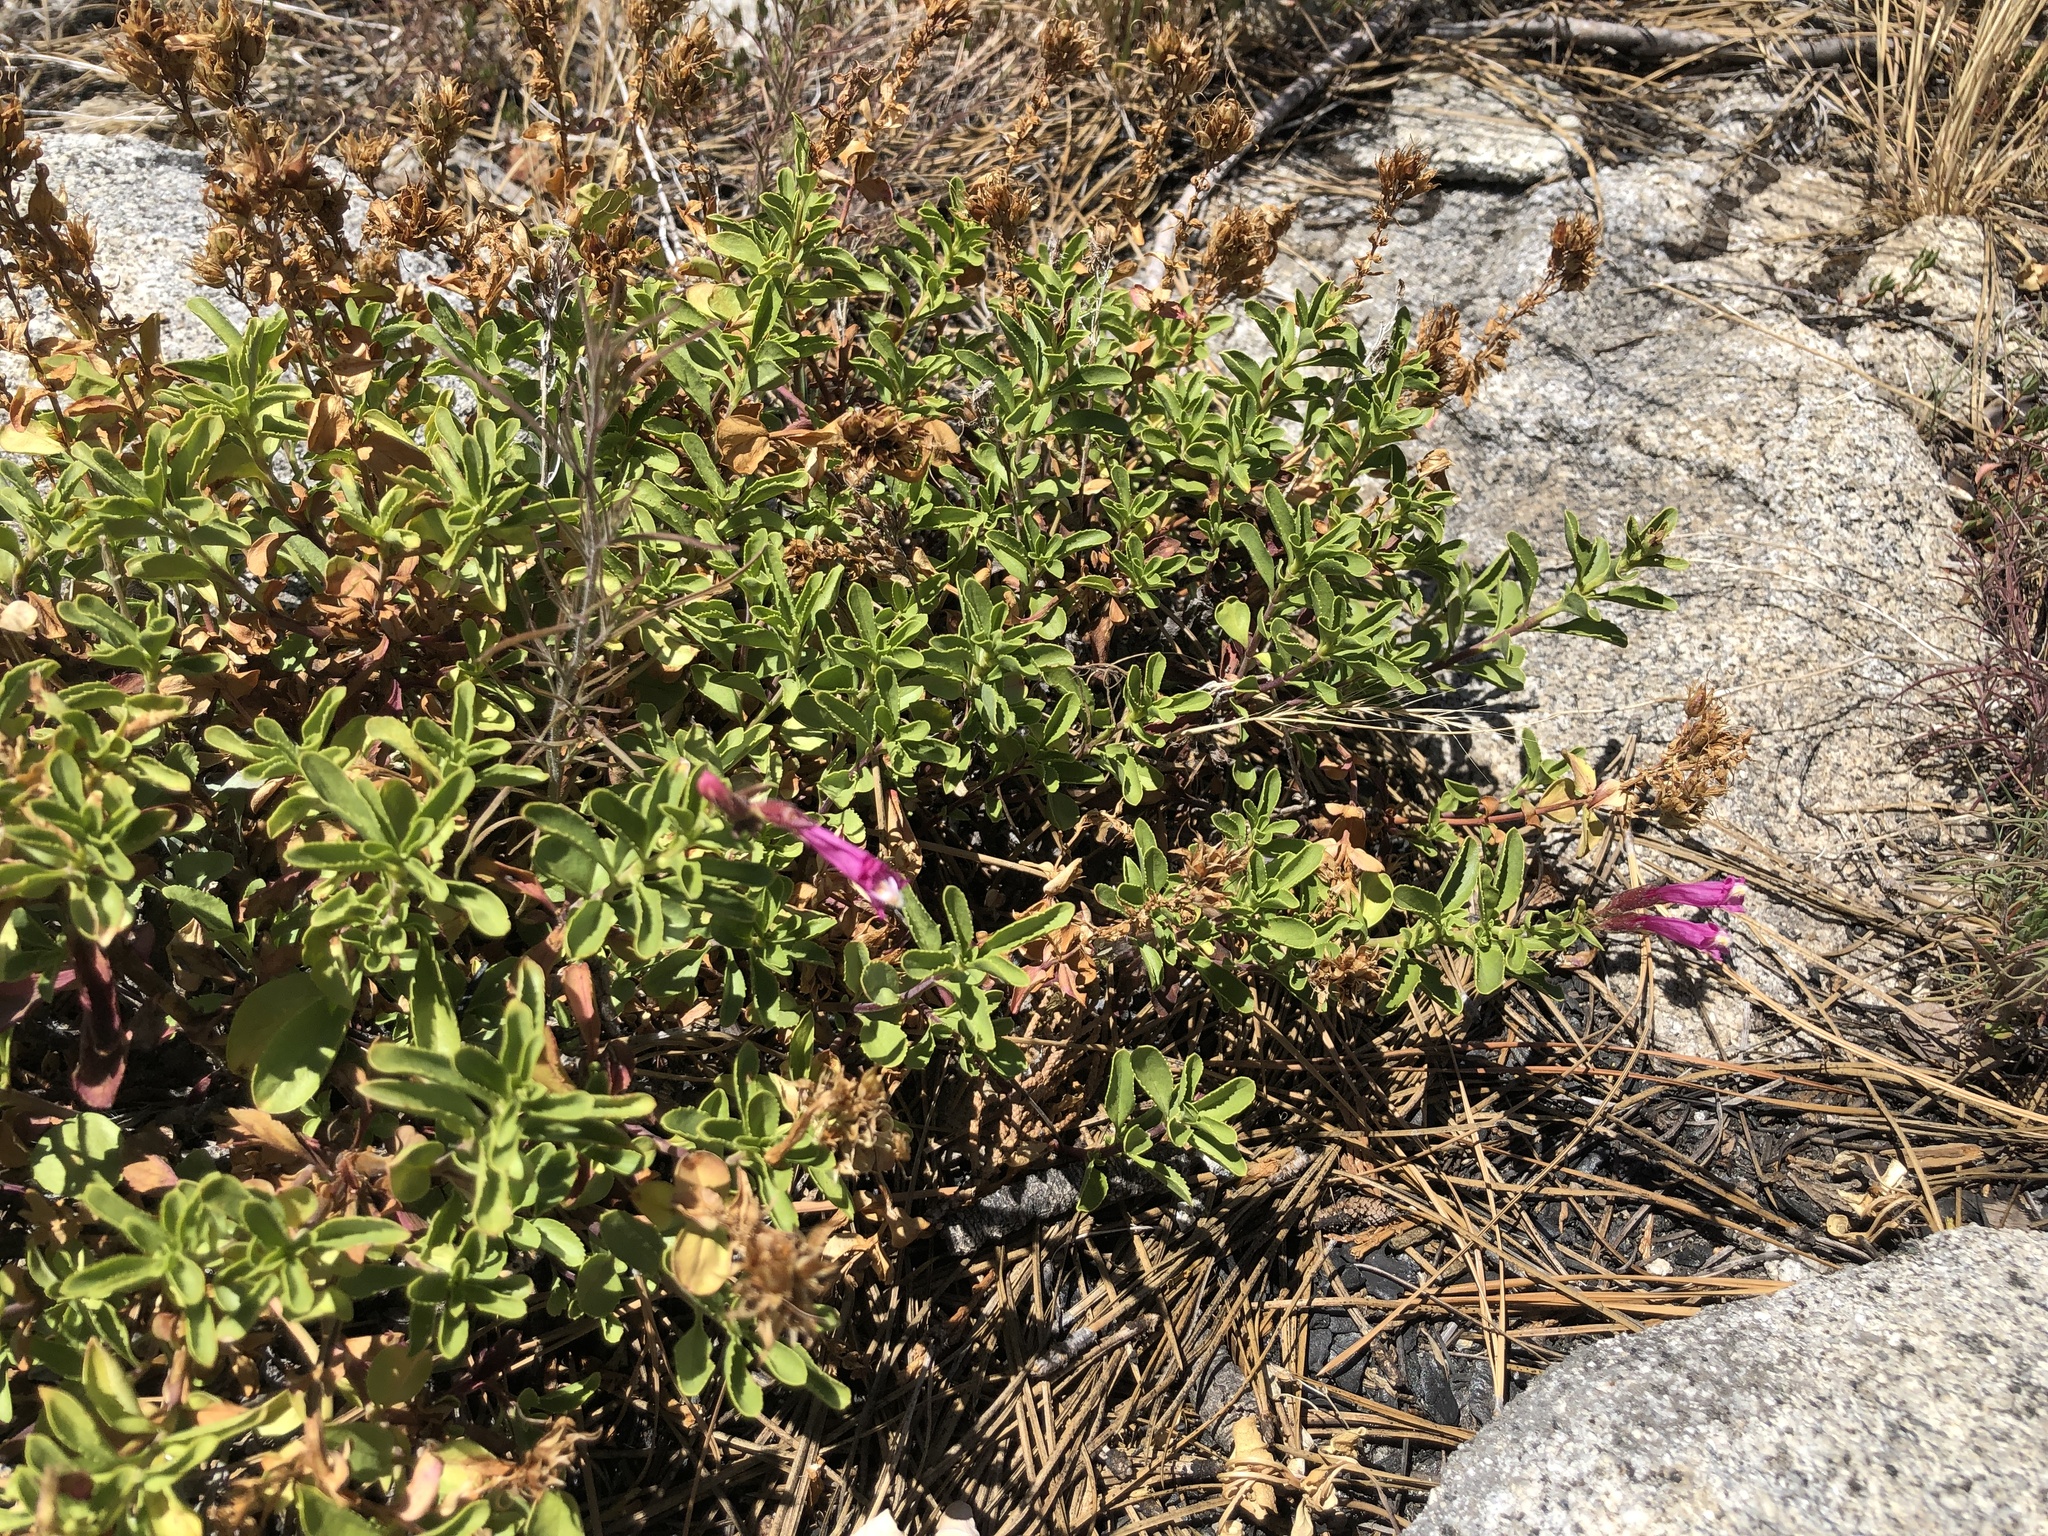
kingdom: Plantae
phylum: Tracheophyta
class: Magnoliopsida
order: Lamiales
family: Plantaginaceae
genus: Penstemon
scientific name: Penstemon newberryi
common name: Mountain-pride
